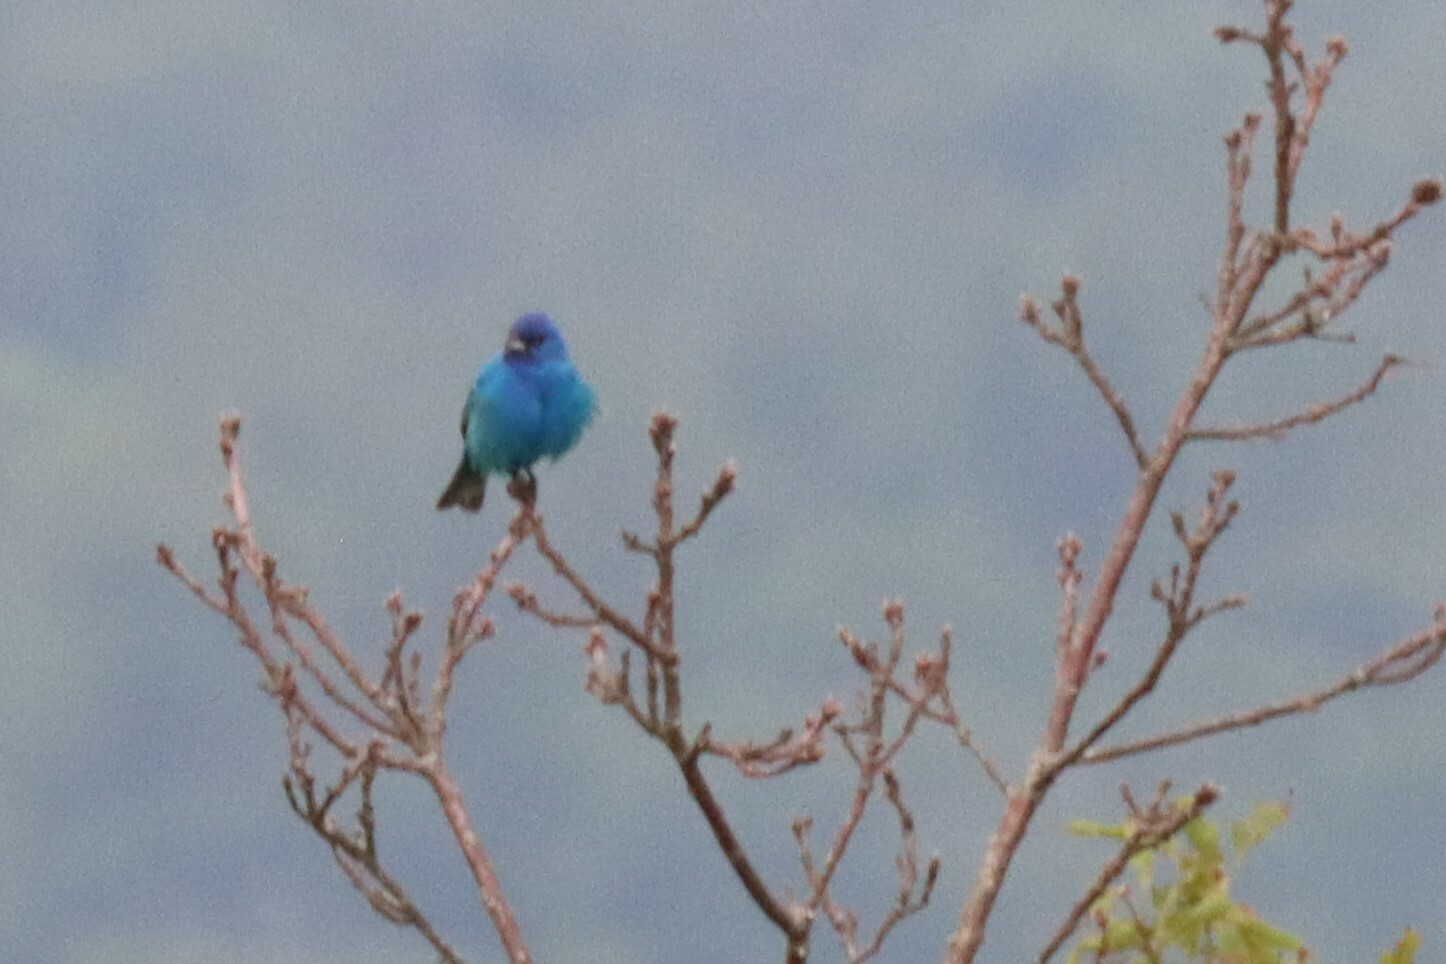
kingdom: Animalia
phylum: Chordata
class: Aves
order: Passeriformes
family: Cardinalidae
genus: Passerina
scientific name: Passerina cyanea
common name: Indigo bunting
